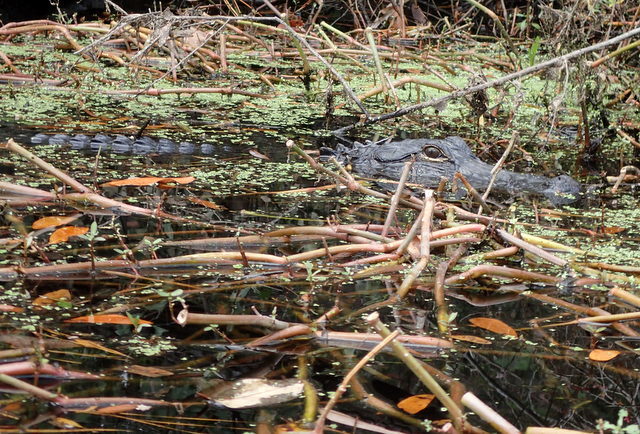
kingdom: Animalia
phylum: Chordata
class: Crocodylia
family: Alligatoridae
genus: Alligator
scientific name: Alligator mississippiensis
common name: American alligator
